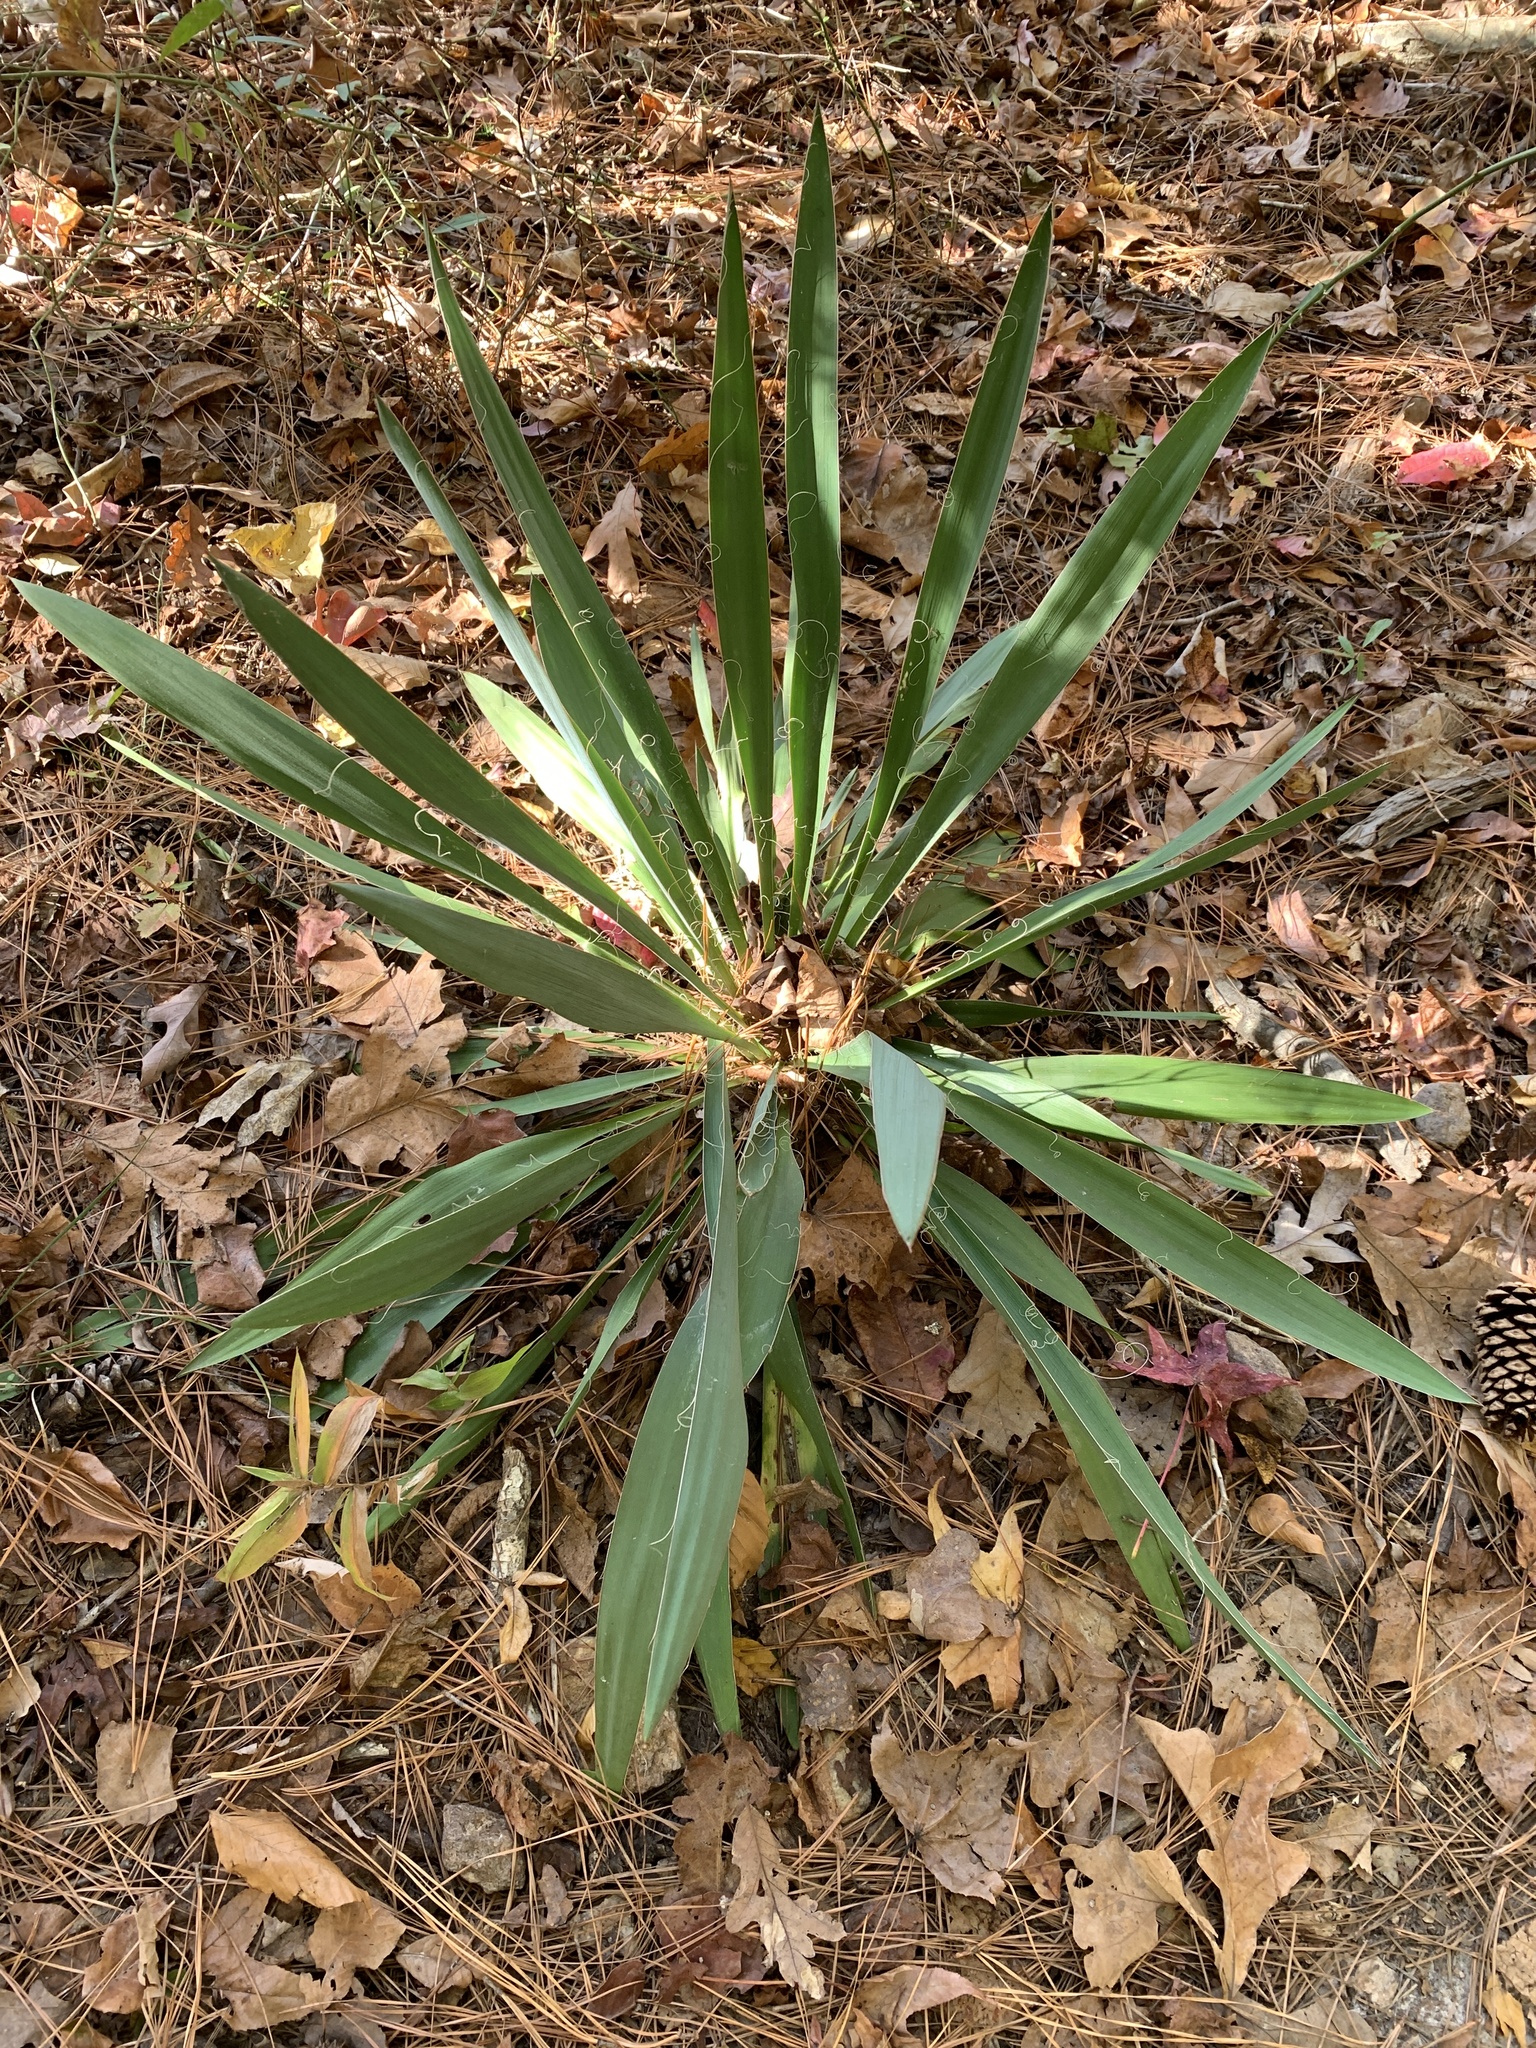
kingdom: Plantae
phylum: Tracheophyta
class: Liliopsida
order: Asparagales
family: Asparagaceae
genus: Yucca
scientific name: Yucca filamentosa
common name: Adam's-needle
